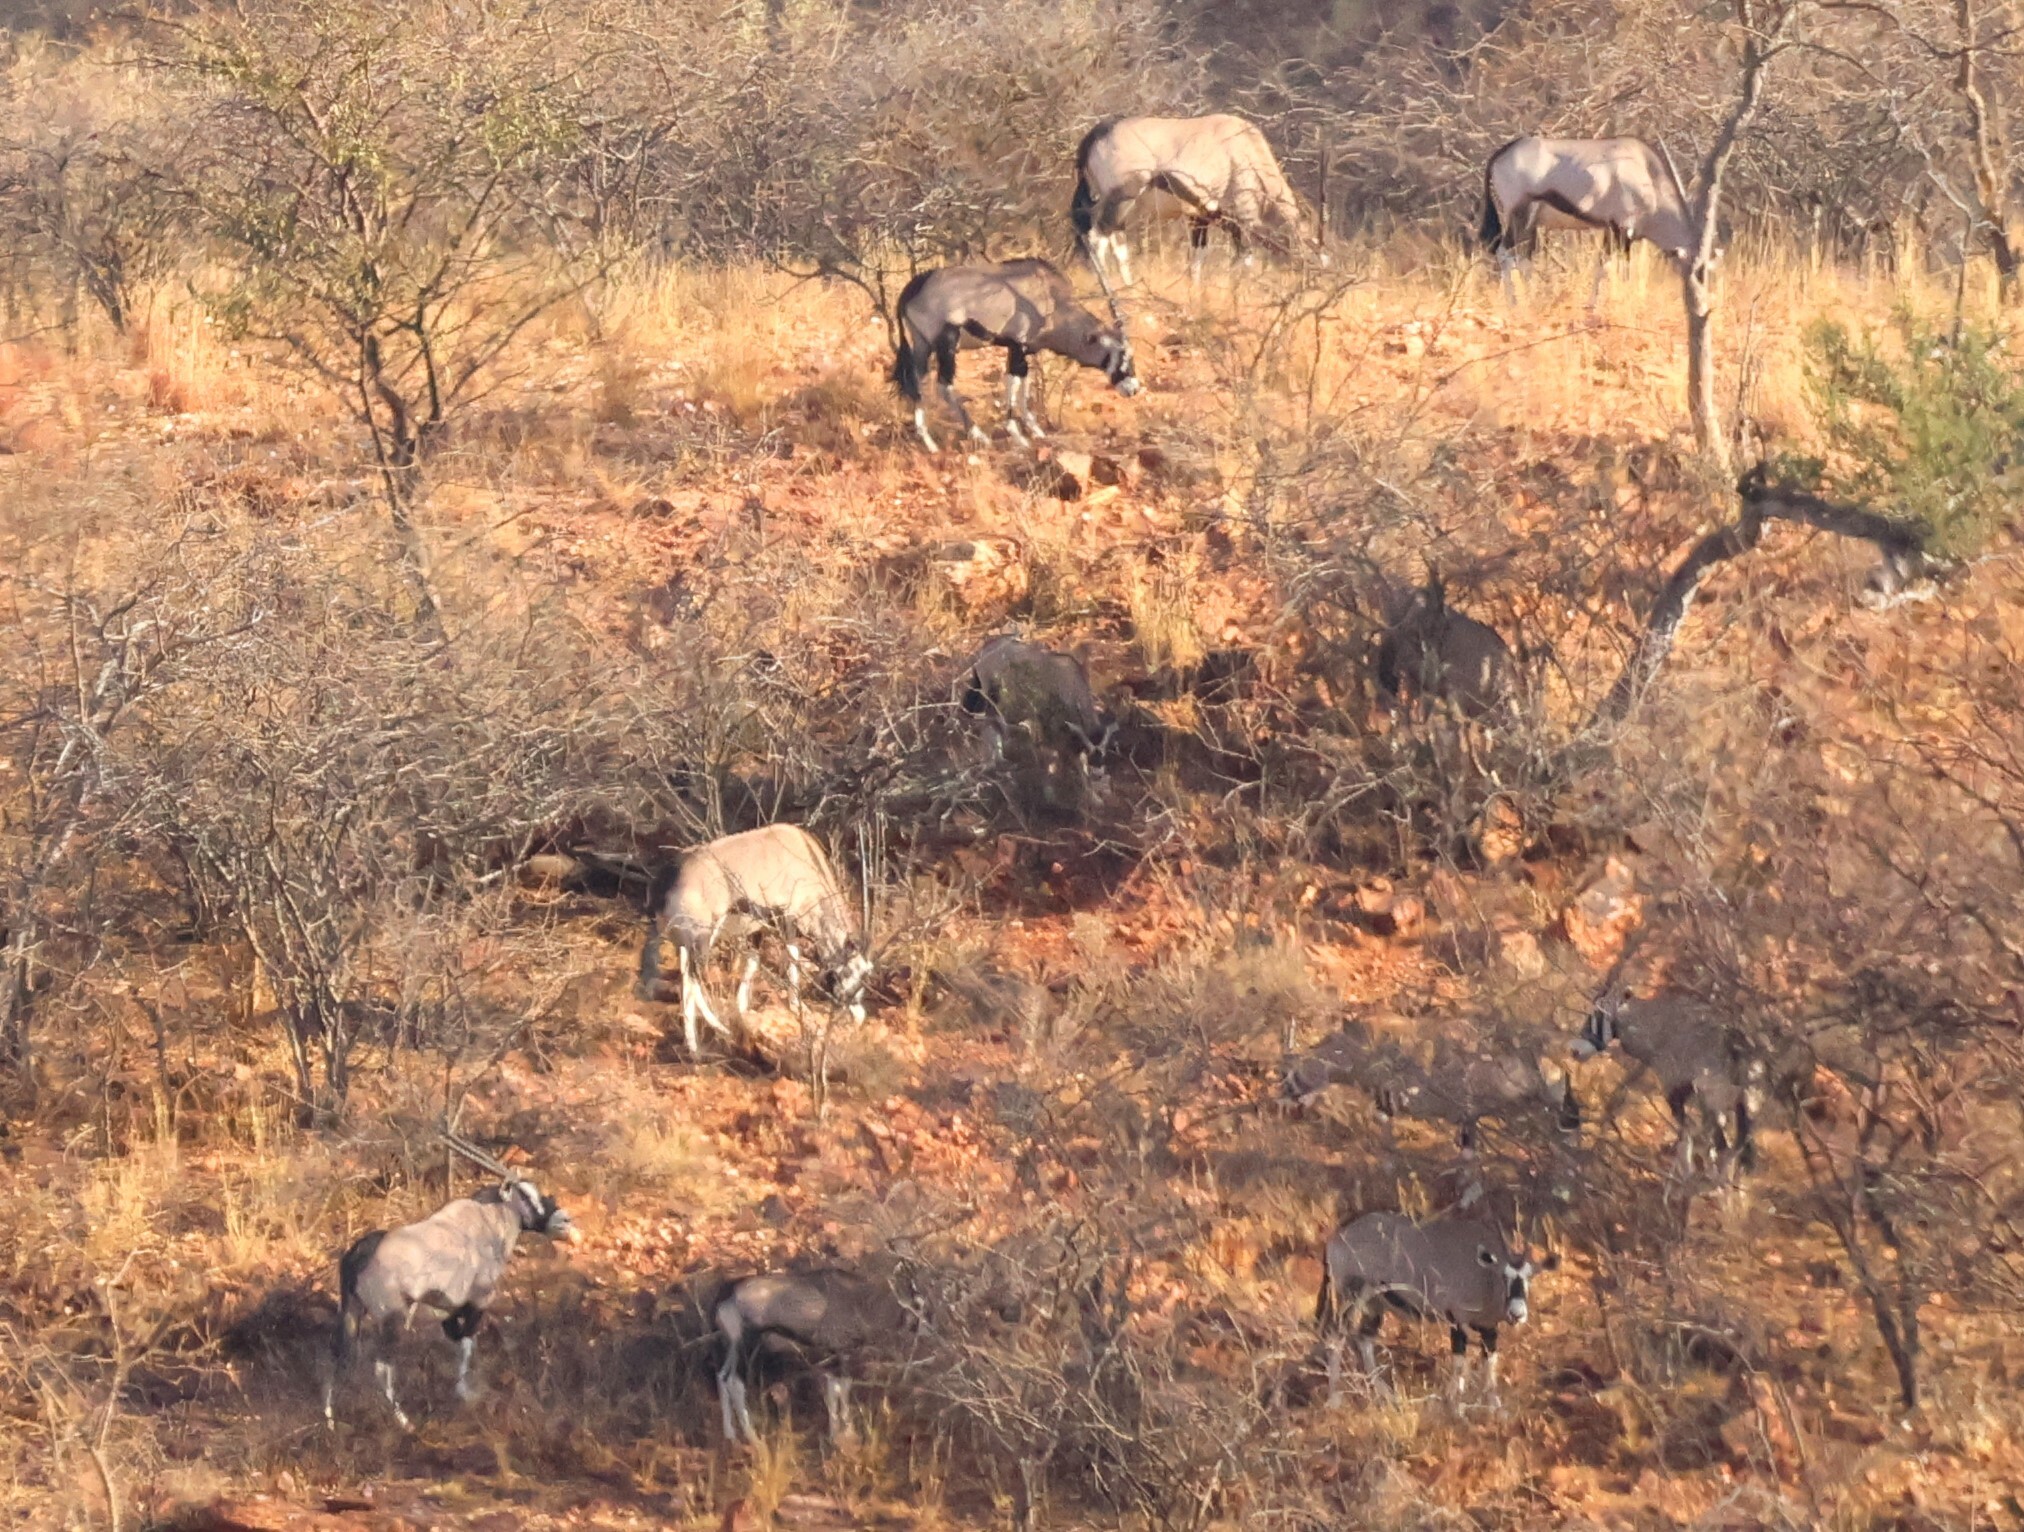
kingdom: Animalia
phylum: Chordata
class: Mammalia
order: Artiodactyla
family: Bovidae
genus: Oryx
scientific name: Oryx gazella
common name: Gemsbok
